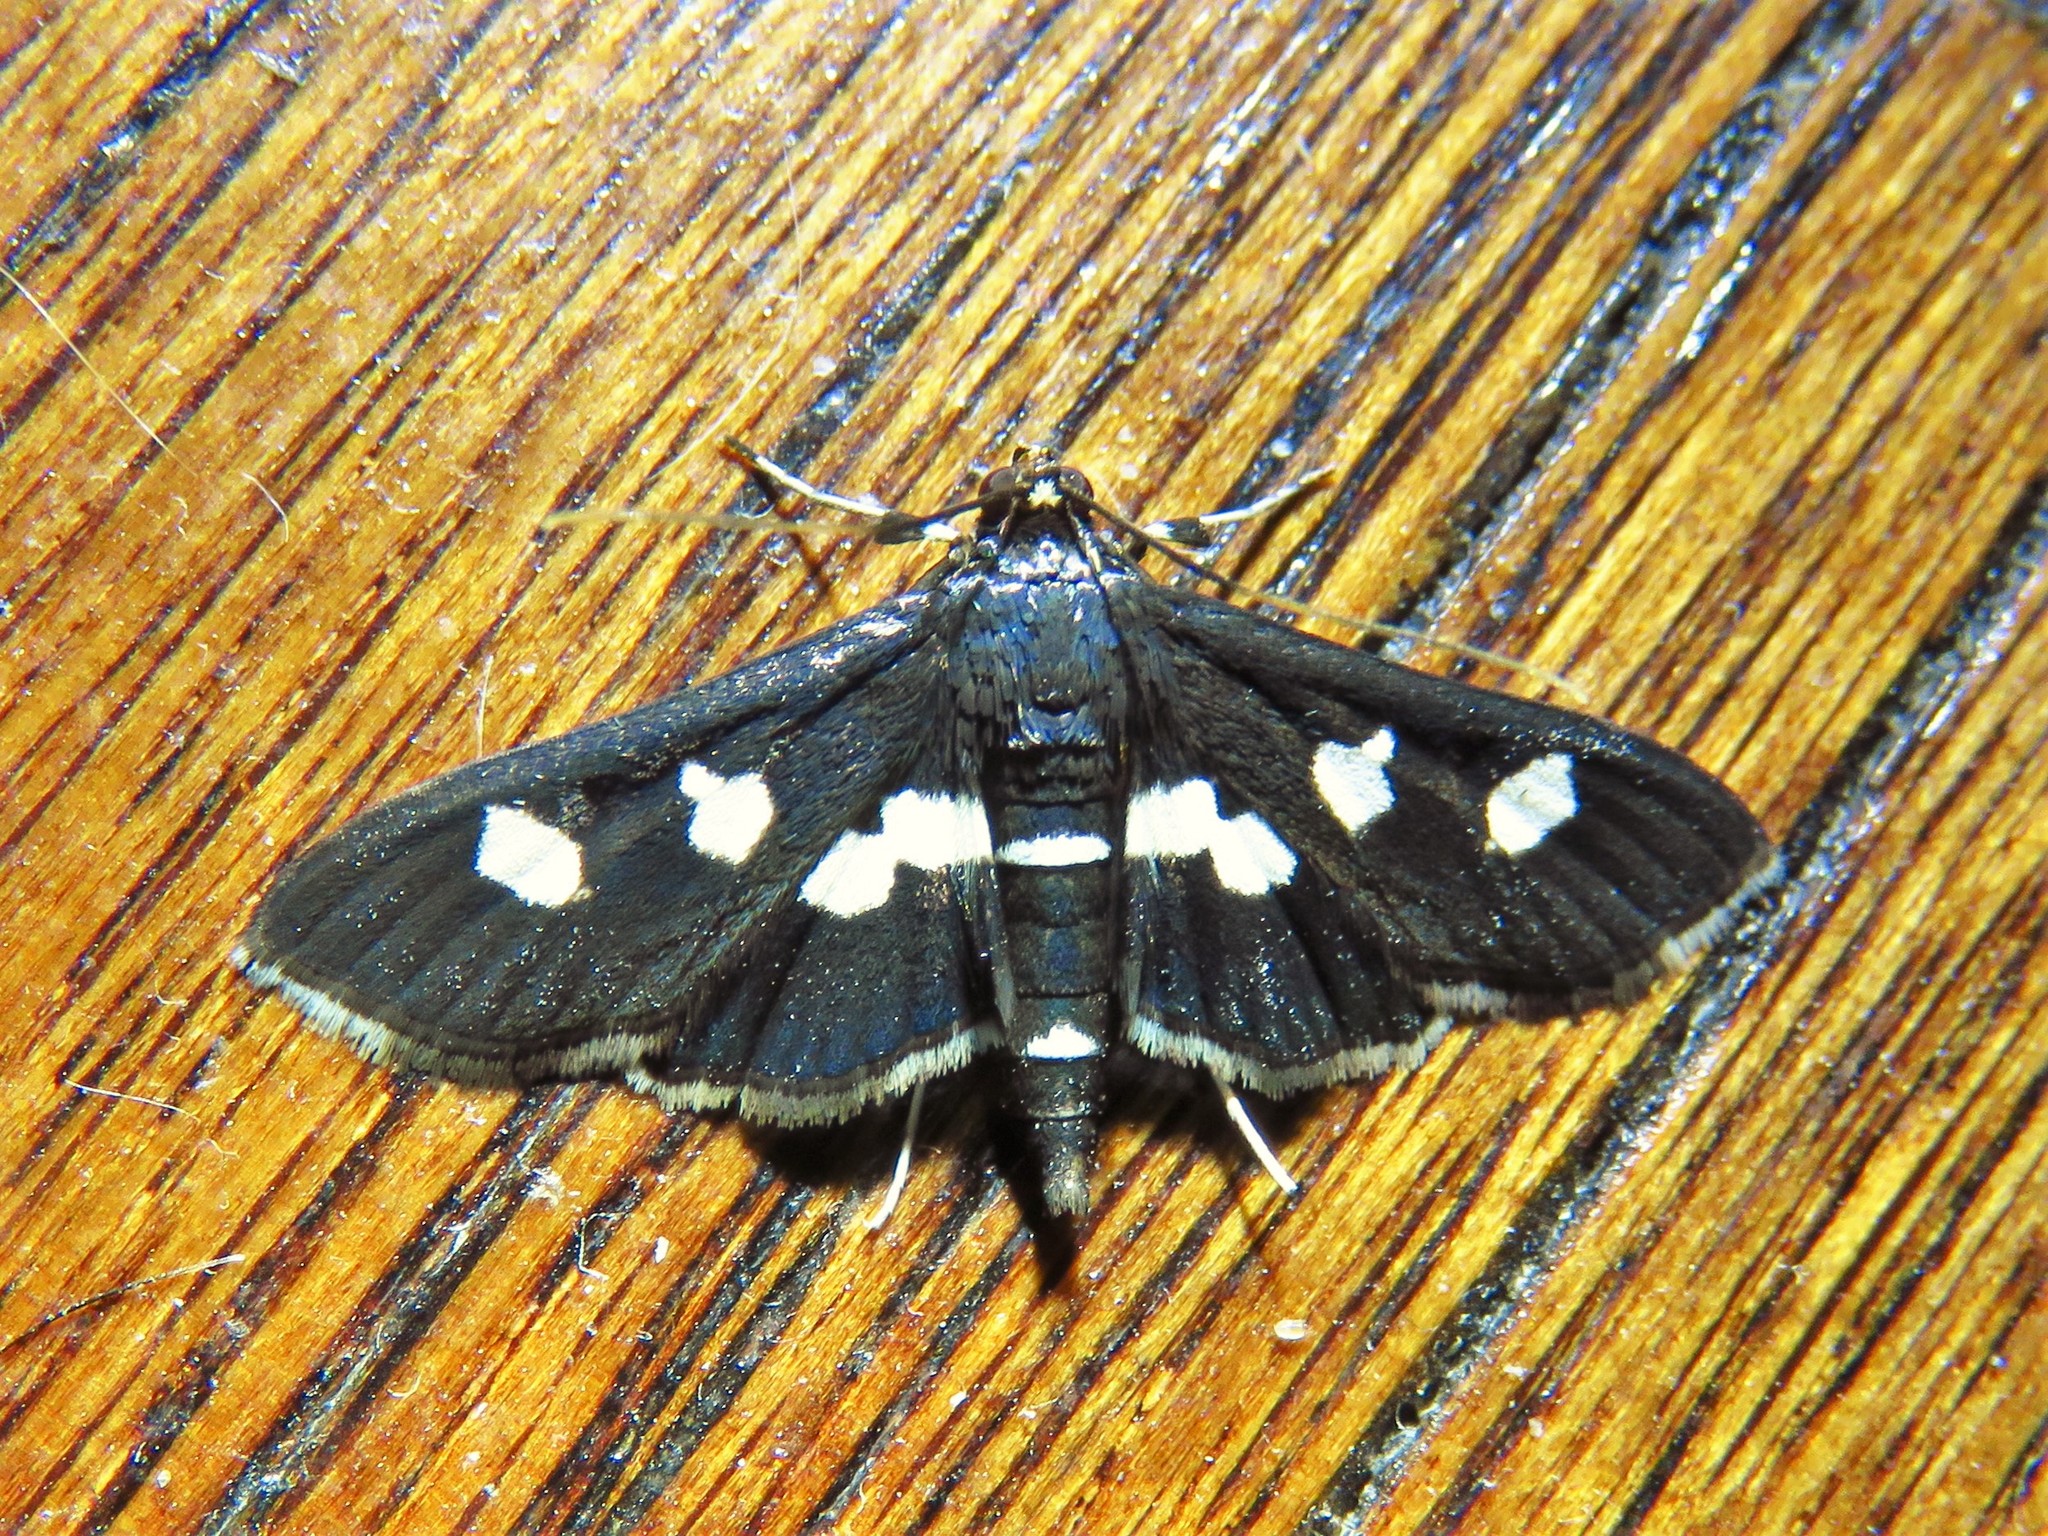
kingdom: Animalia
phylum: Arthropoda
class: Insecta
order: Lepidoptera
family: Crambidae
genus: Desmia
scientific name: Desmia
